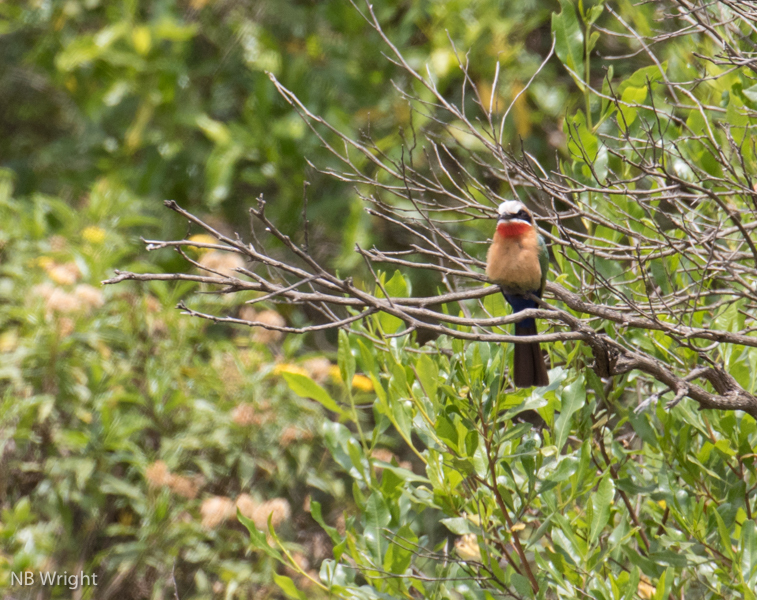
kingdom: Animalia
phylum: Chordata
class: Aves
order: Coraciiformes
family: Meropidae
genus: Merops
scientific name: Merops bullockoides
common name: White-fronted bee-eater
